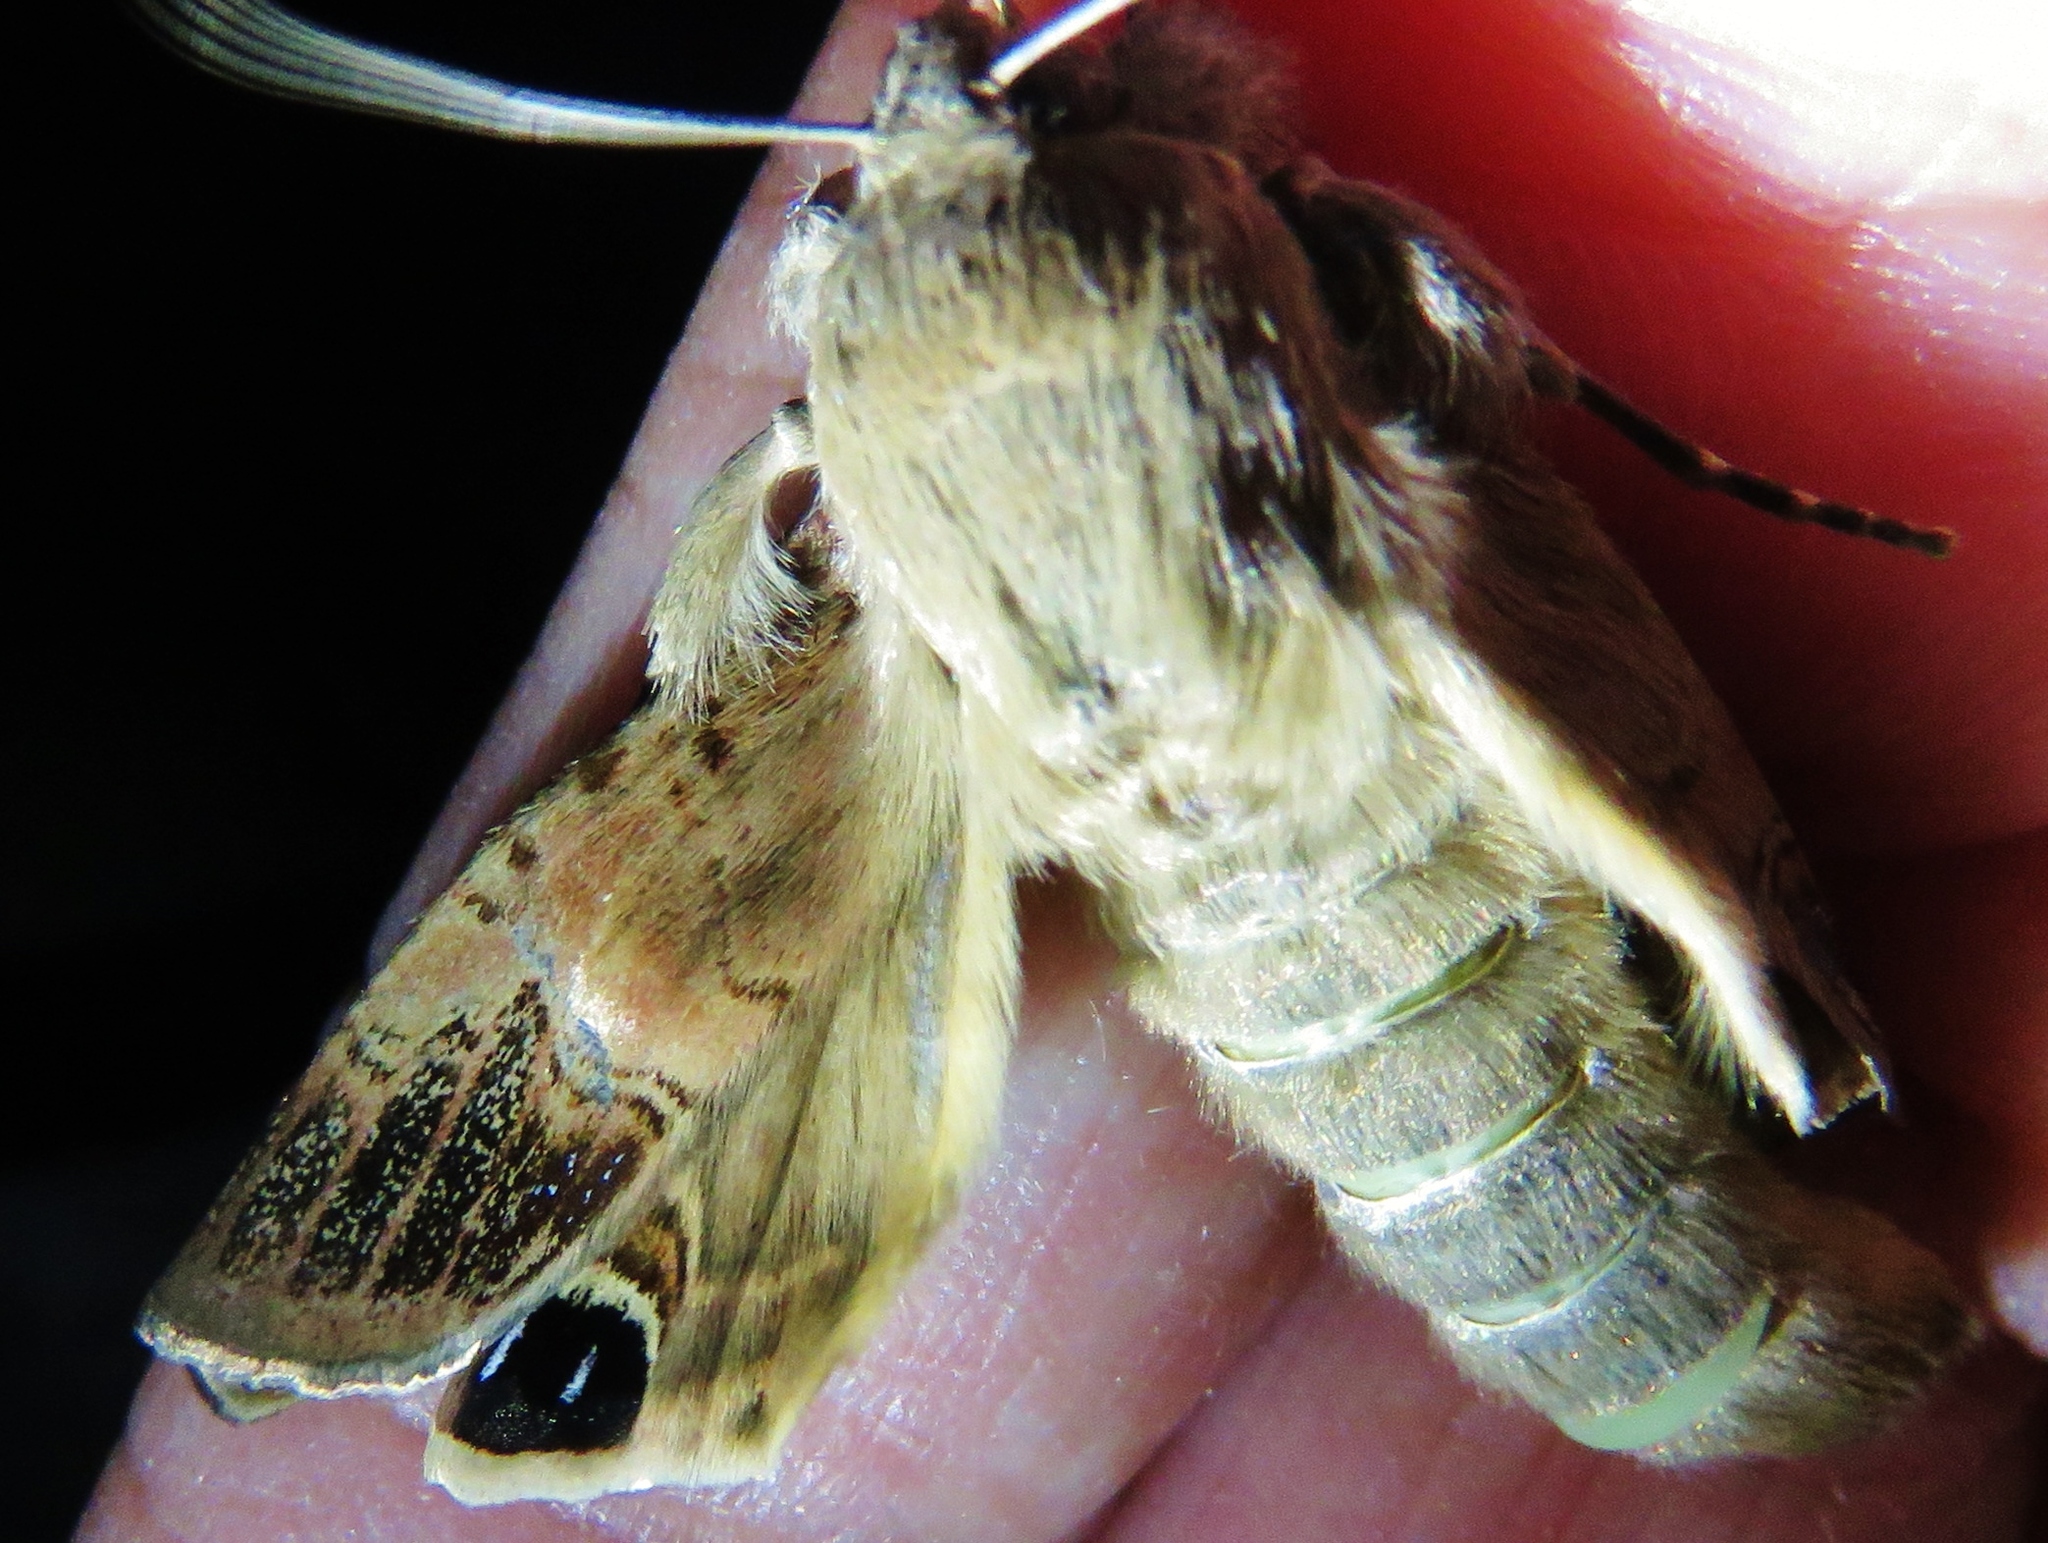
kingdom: Animalia
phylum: Arthropoda
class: Insecta
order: Lepidoptera
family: Erebidae
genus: Litoprosopus
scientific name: Litoprosopus futilis
